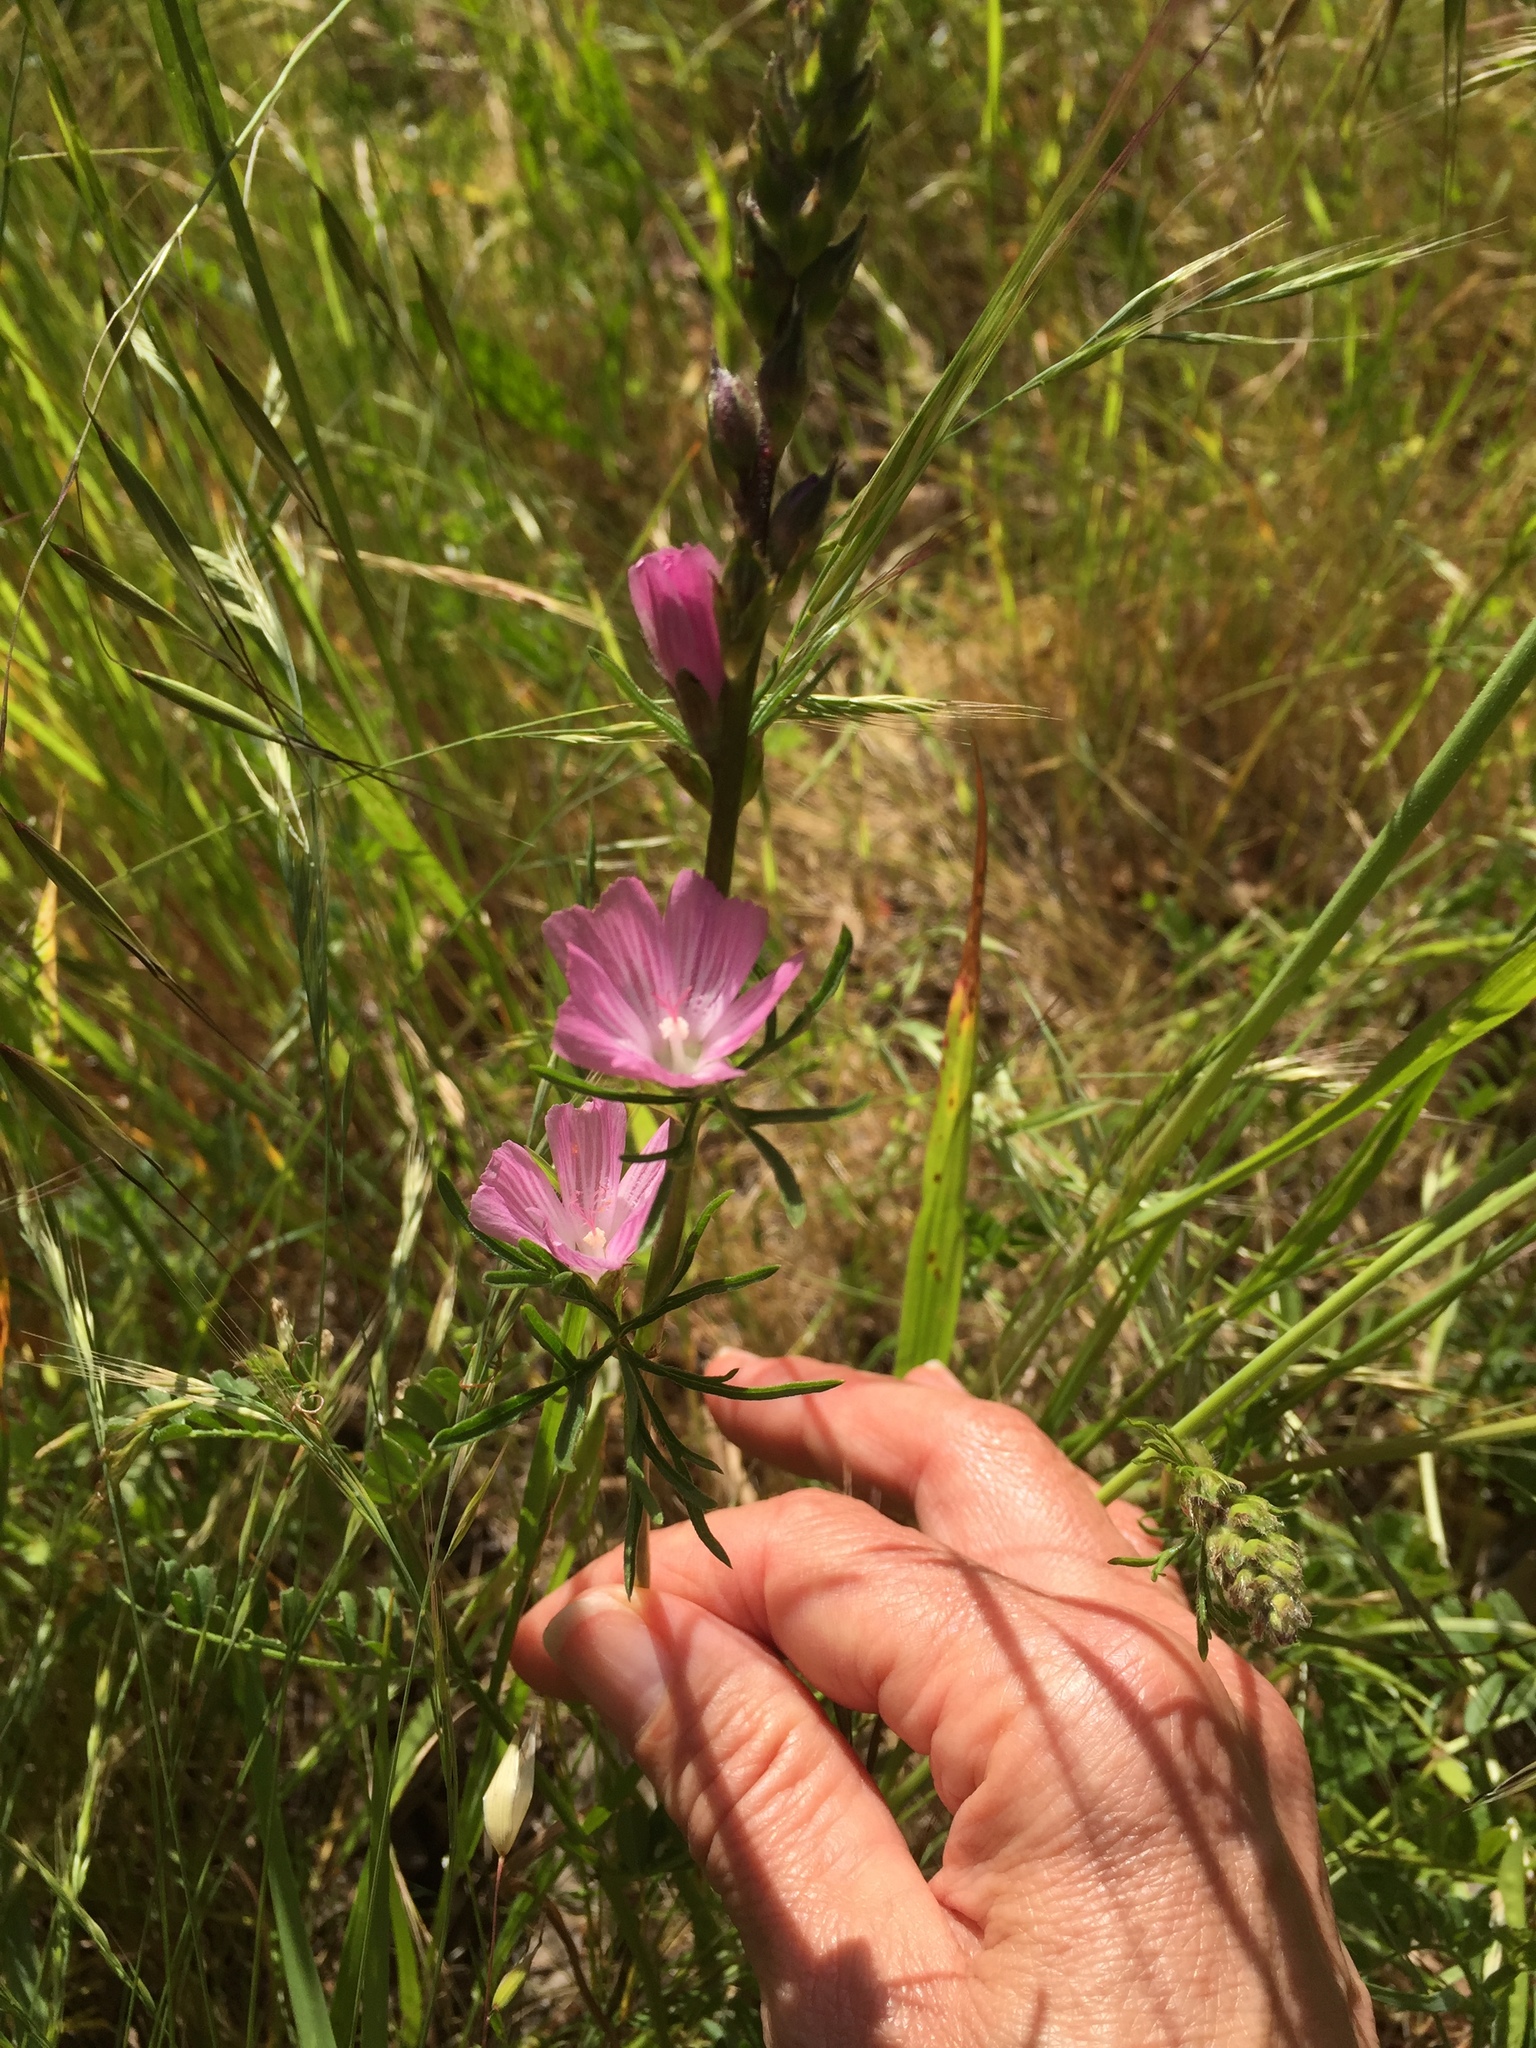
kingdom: Plantae
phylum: Tracheophyta
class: Magnoliopsida
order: Malvales
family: Malvaceae
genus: Sidalcea
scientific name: Sidalcea malviflora
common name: Greek mallow
